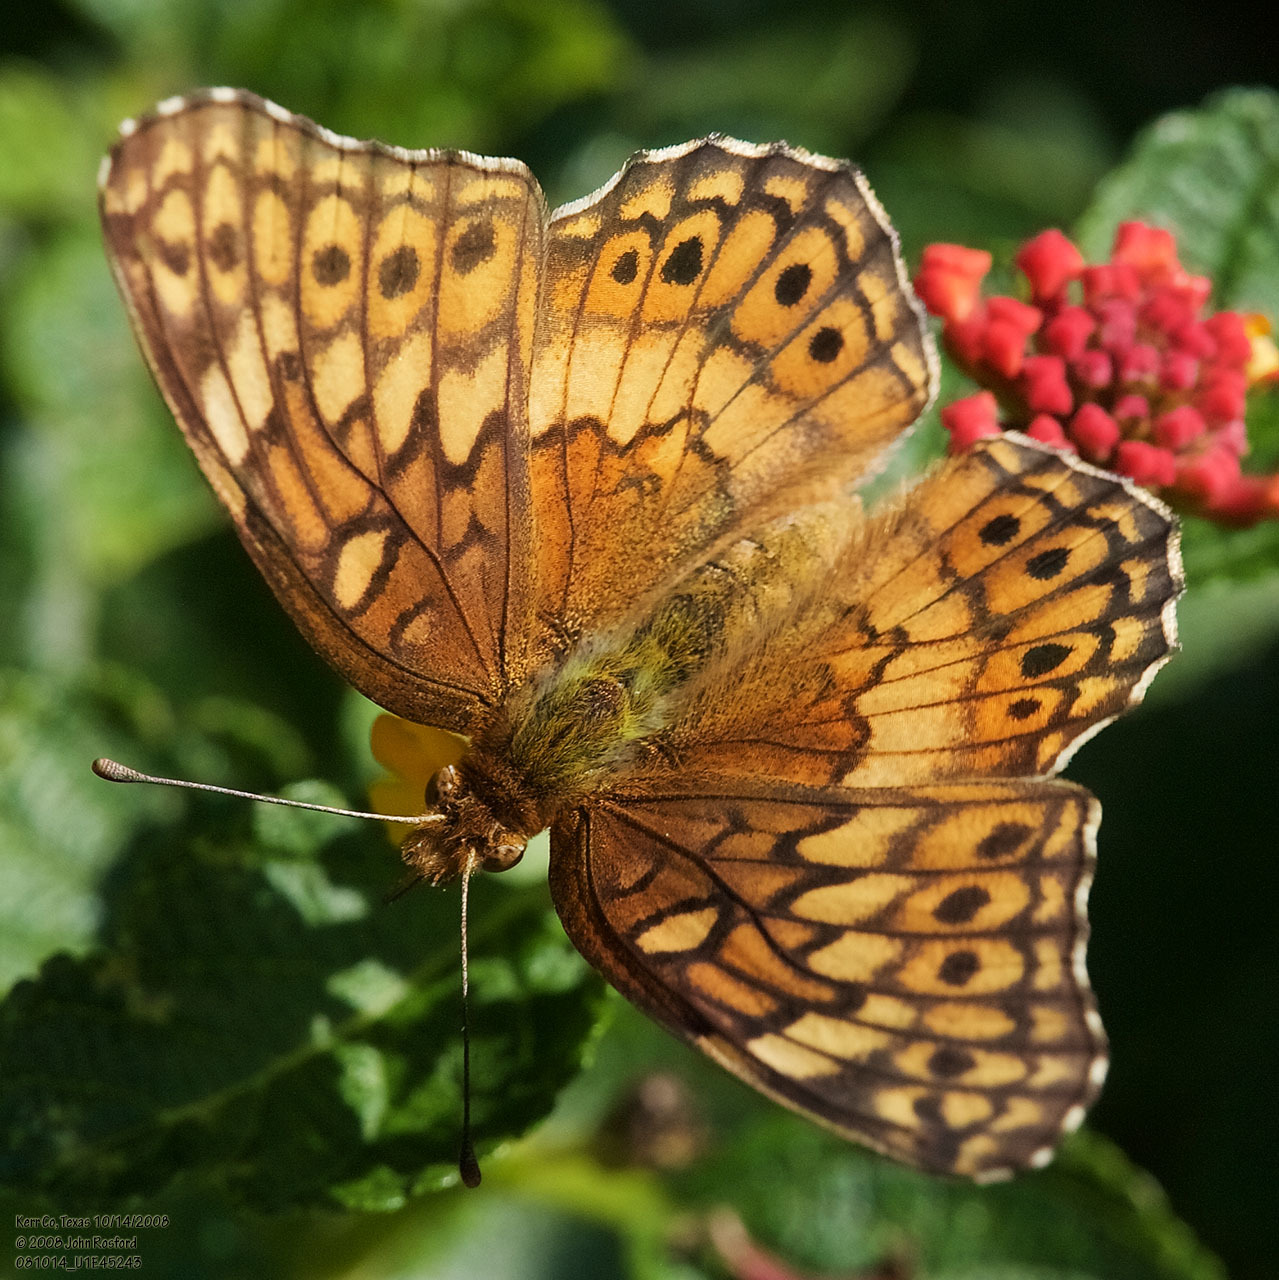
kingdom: Animalia
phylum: Arthropoda
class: Insecta
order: Lepidoptera
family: Nymphalidae
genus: Euptoieta
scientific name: Euptoieta claudia
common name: Variegated fritillary
